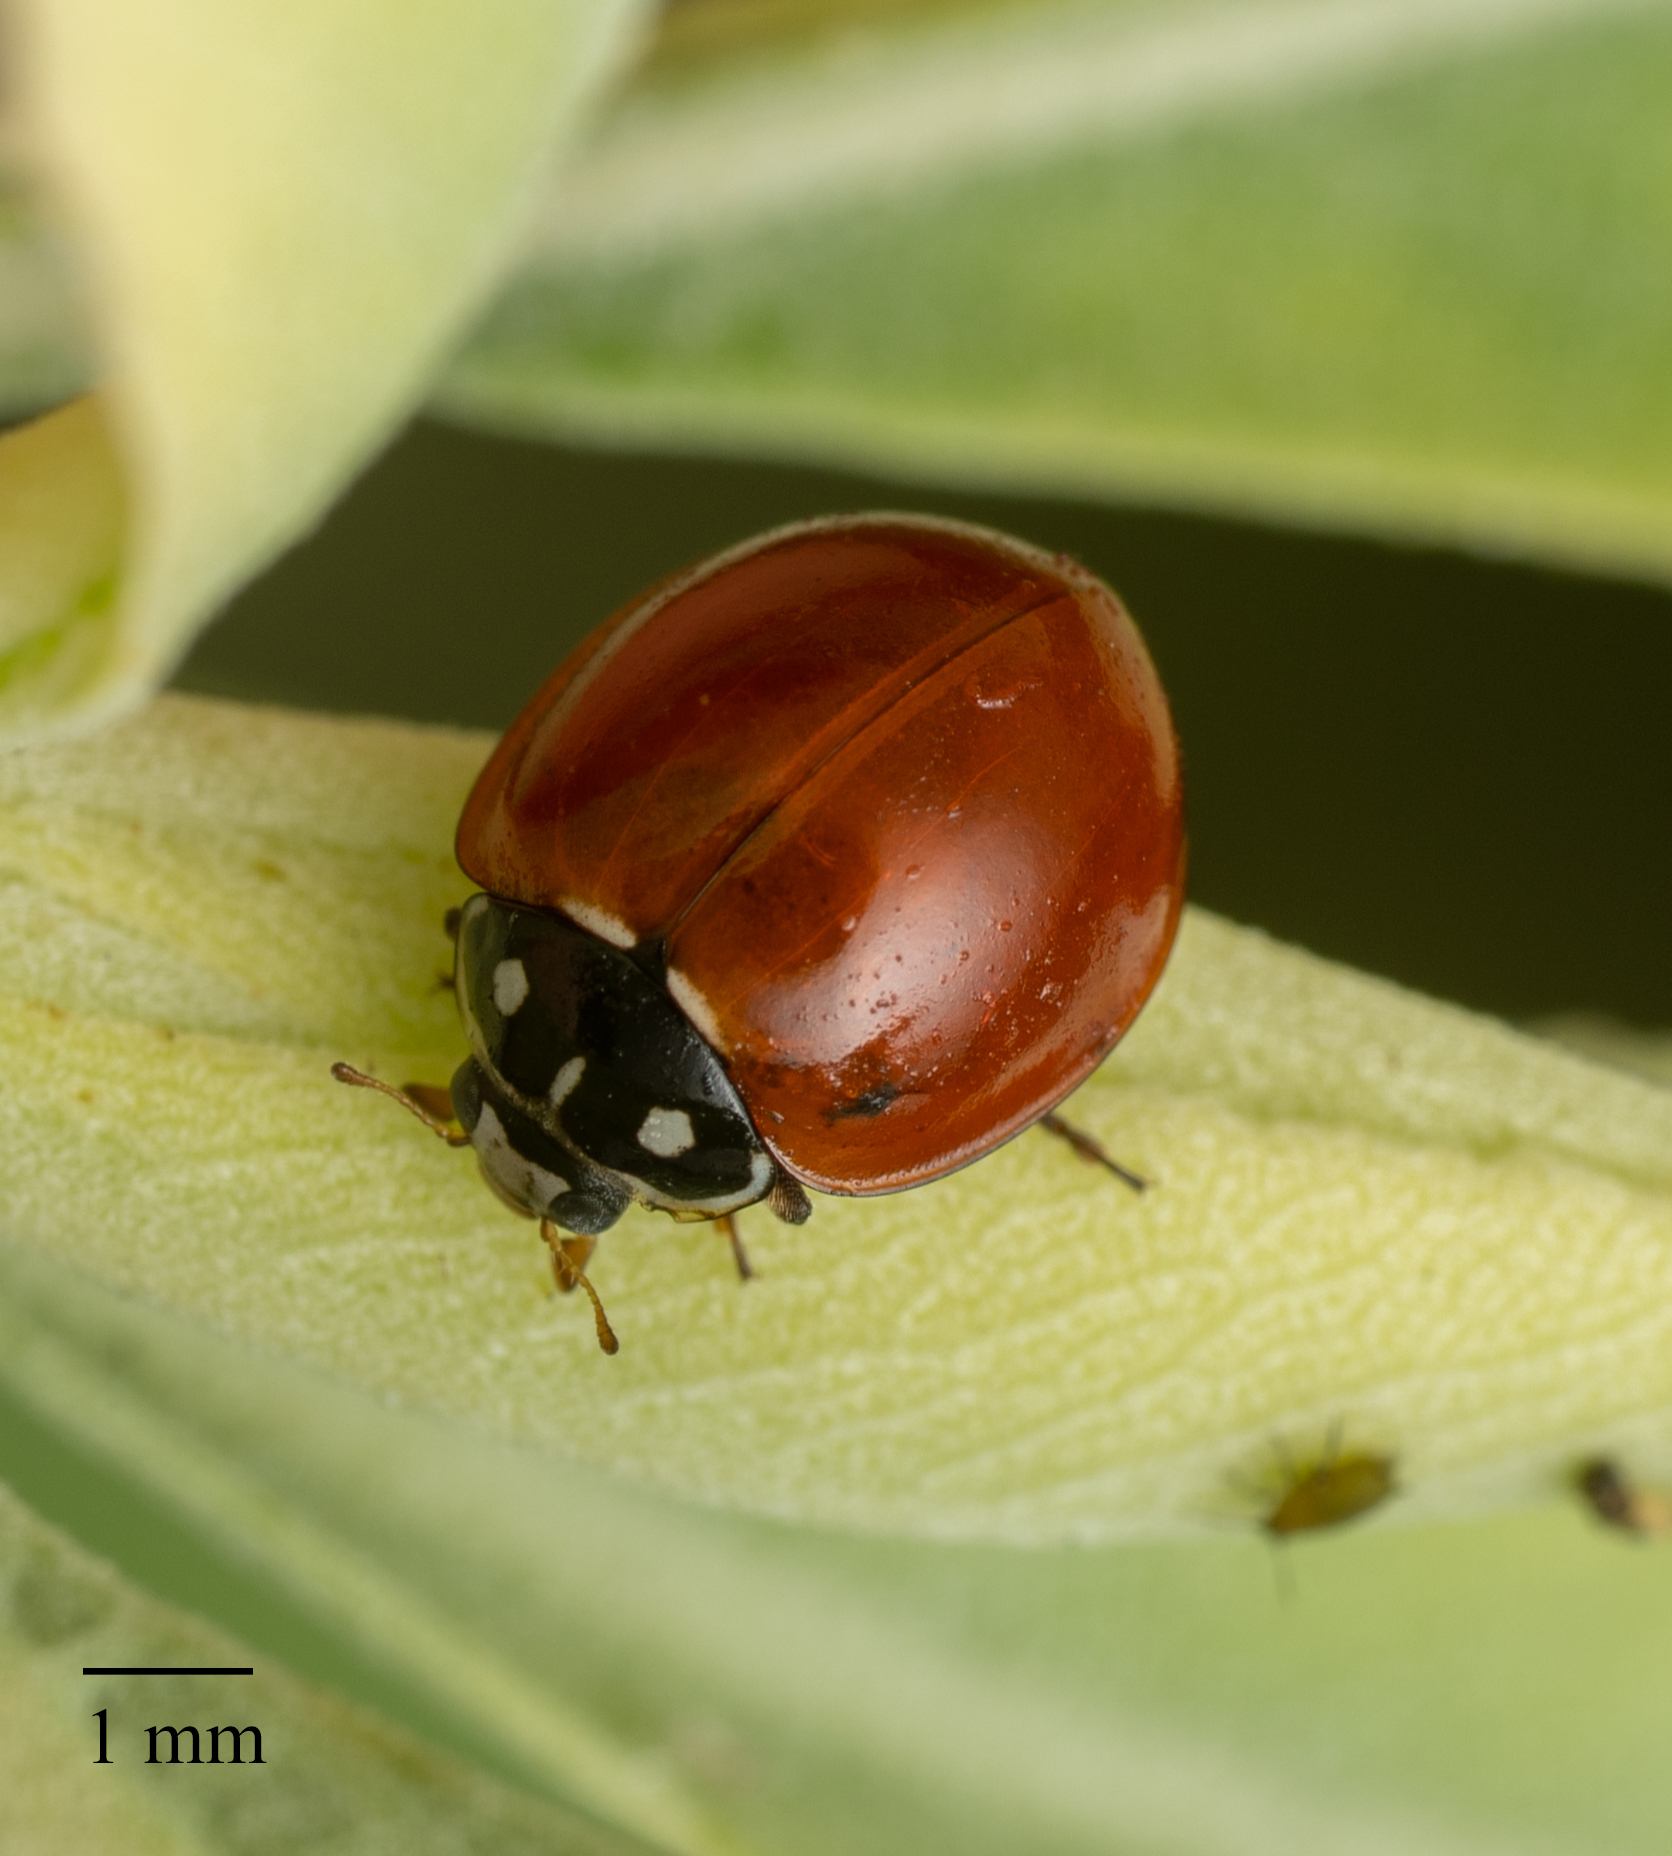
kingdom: Animalia
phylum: Arthropoda
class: Insecta
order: Coleoptera
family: Coccinellidae
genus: Cycloneda
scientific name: Cycloneda sanguinea
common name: Ladybird beetle
